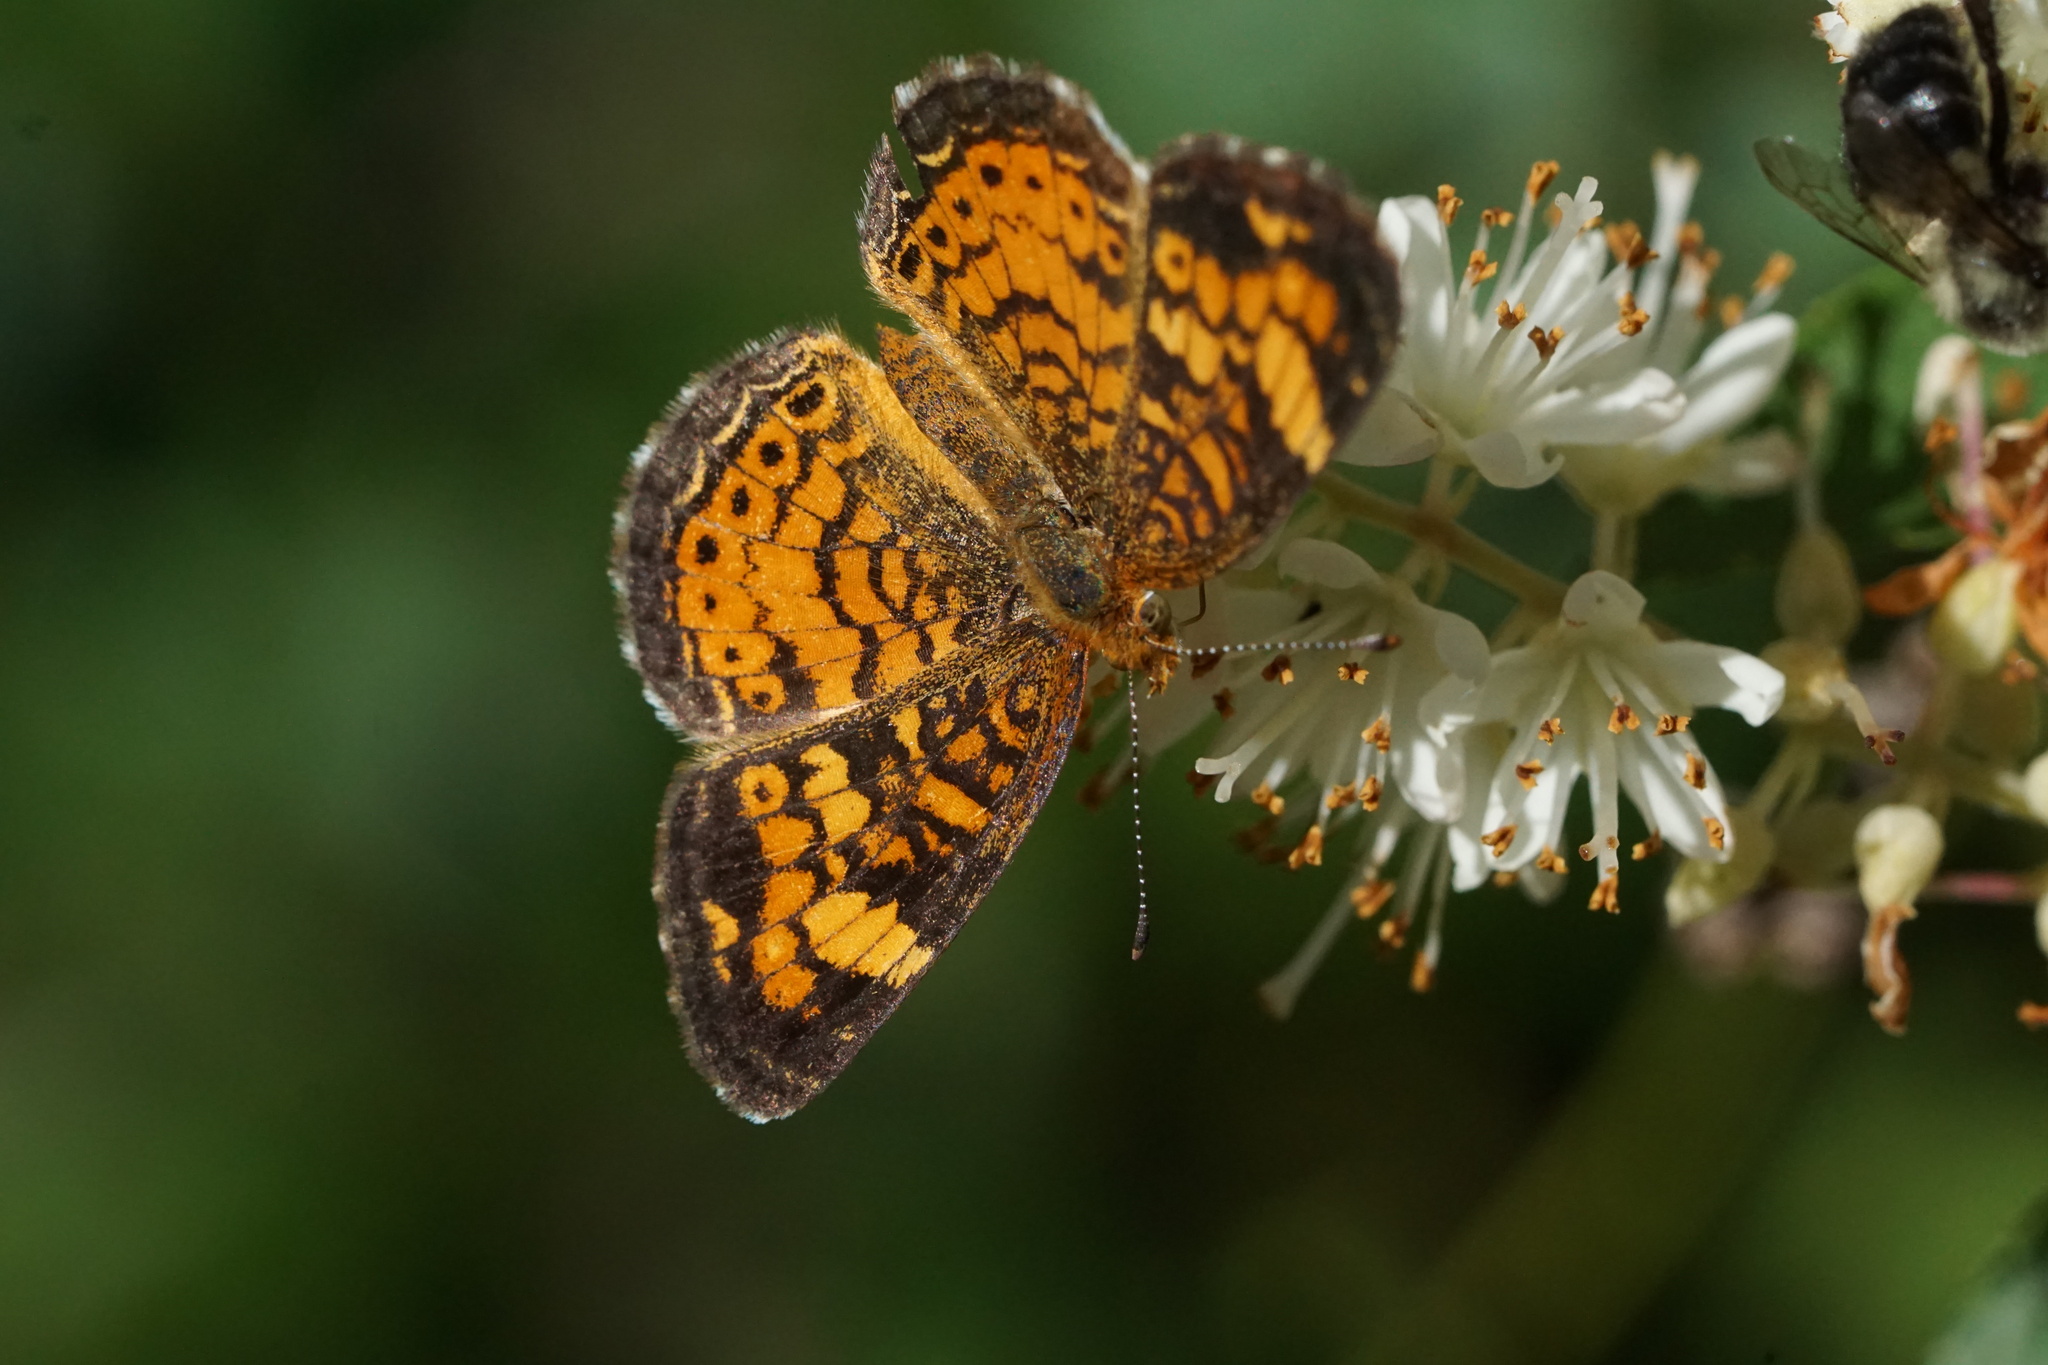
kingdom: Animalia
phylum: Arthropoda
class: Insecta
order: Lepidoptera
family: Nymphalidae
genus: Phyciodes
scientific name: Phyciodes tharos
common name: Pearl crescent
